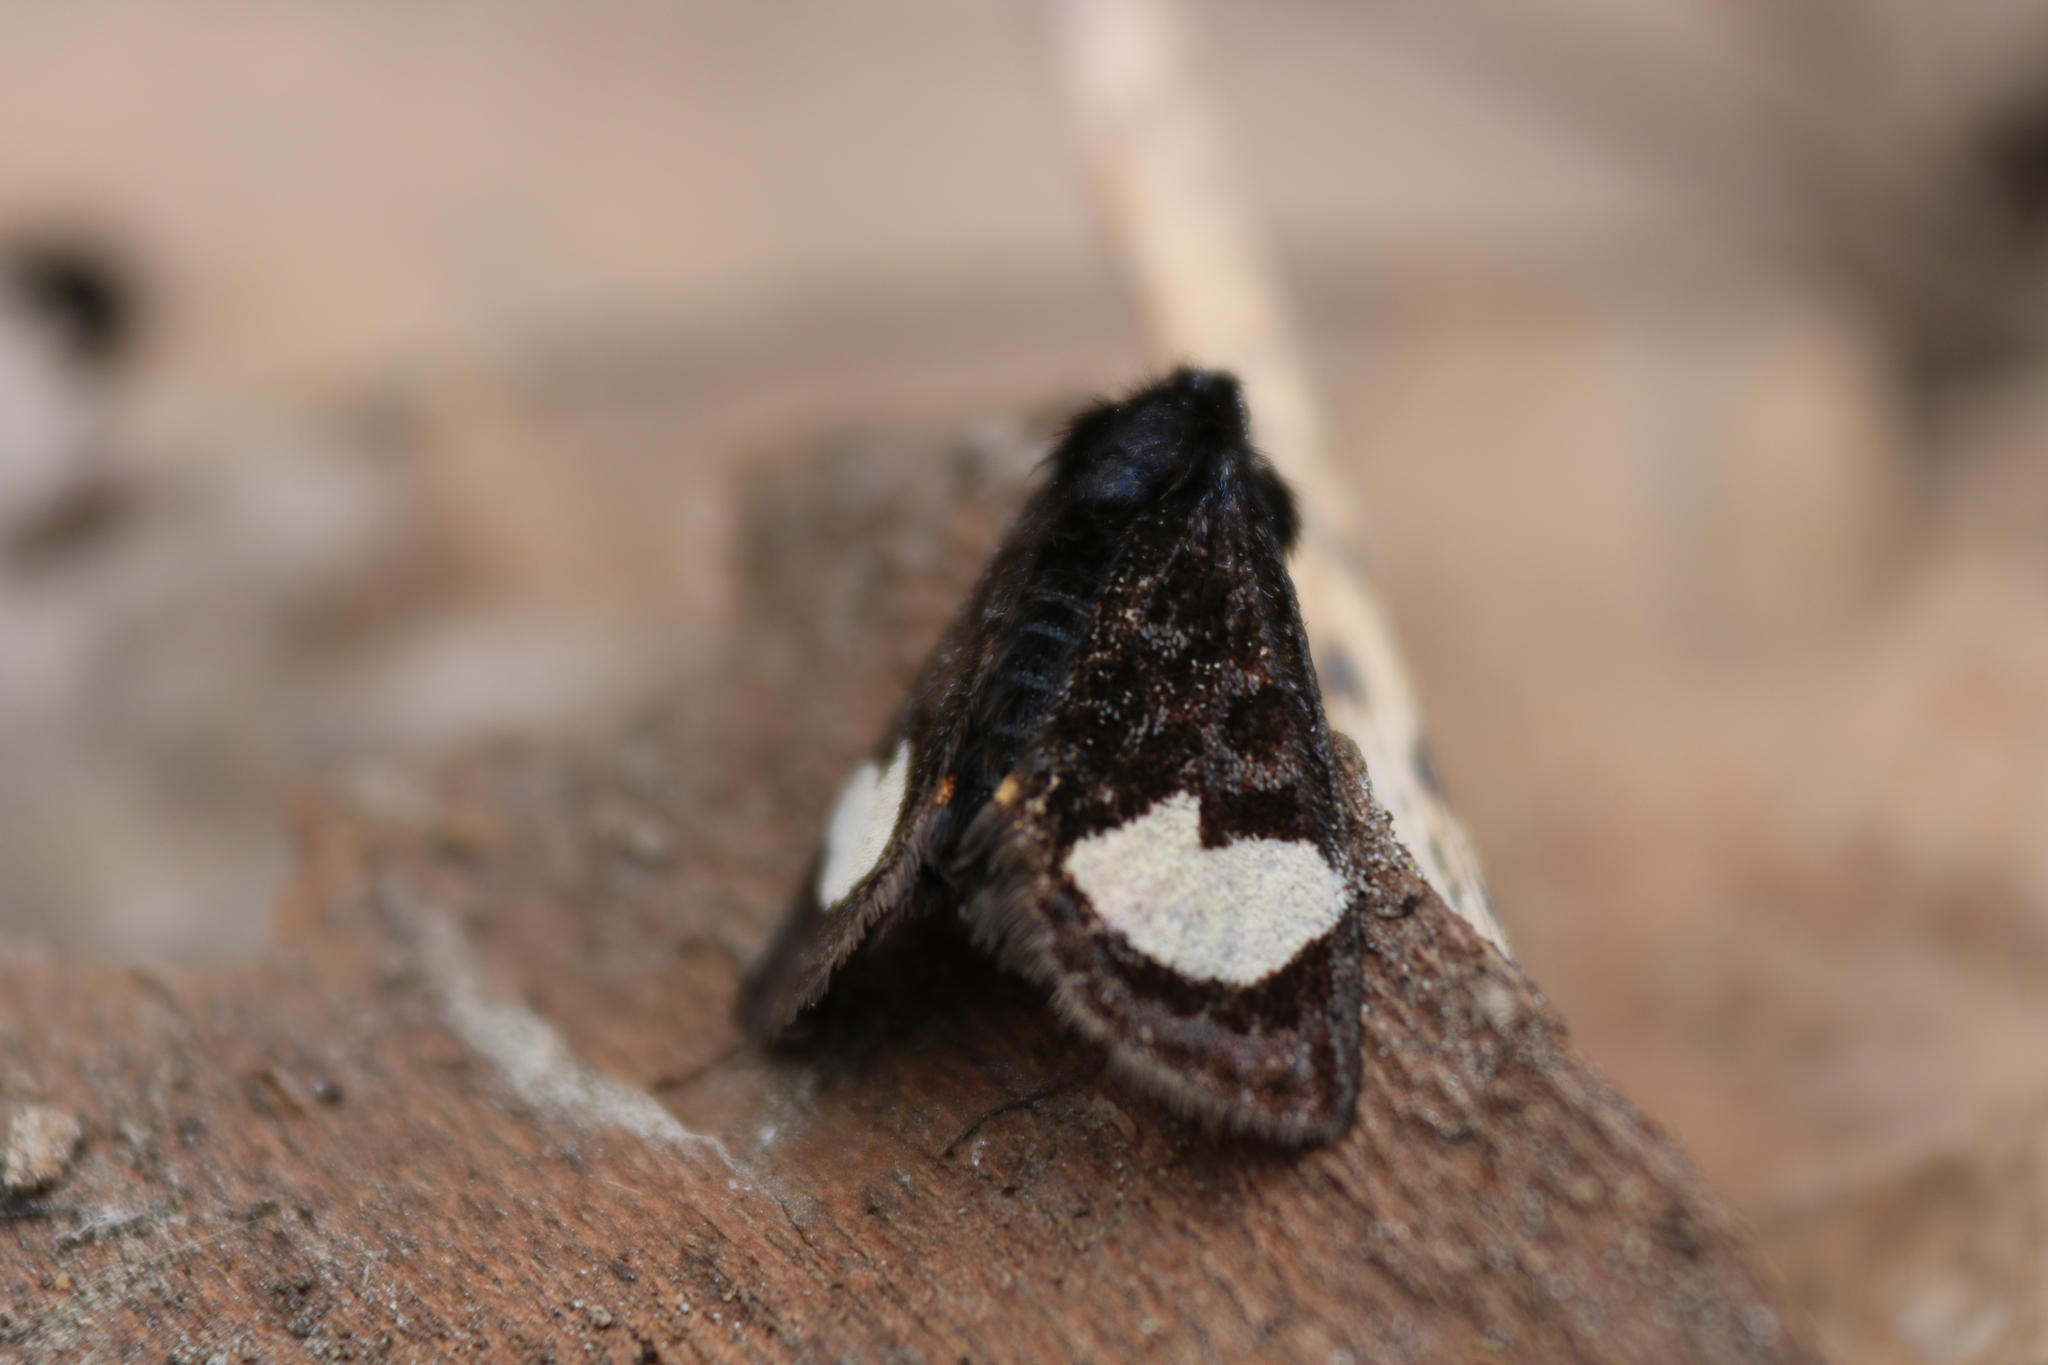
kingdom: Animalia
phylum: Arthropoda
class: Insecta
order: Lepidoptera
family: Noctuidae
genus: Psychomorpha
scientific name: Psychomorpha epimenis
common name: Grapevine epimenis moth
